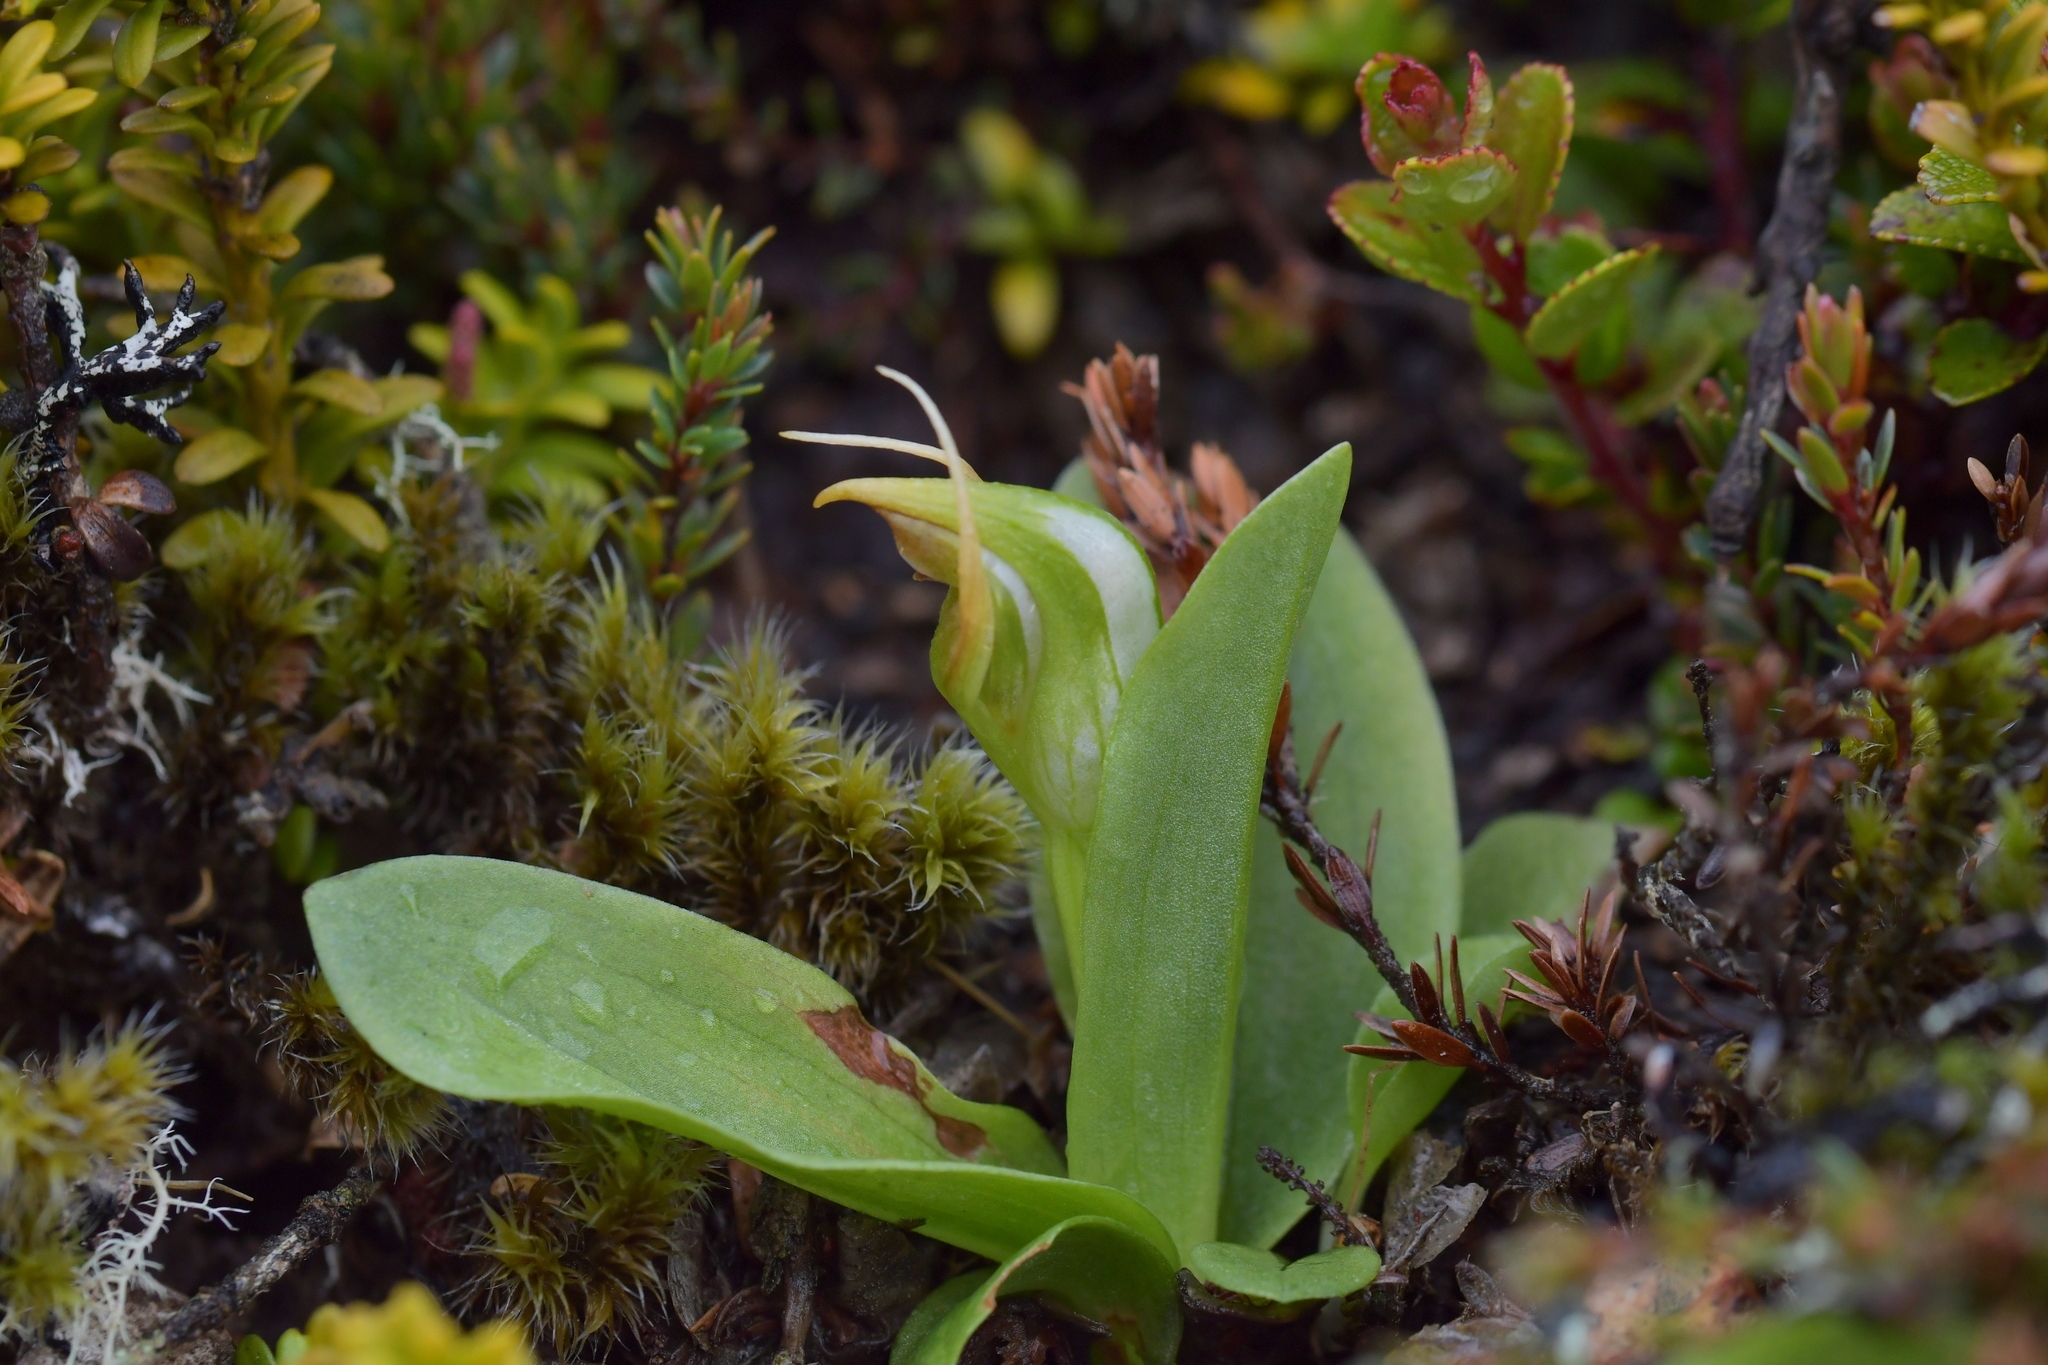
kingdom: Plantae
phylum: Tracheophyta
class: Liliopsida
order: Asparagales
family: Orchidaceae
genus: Pterostylis
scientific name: Pterostylis humilis
